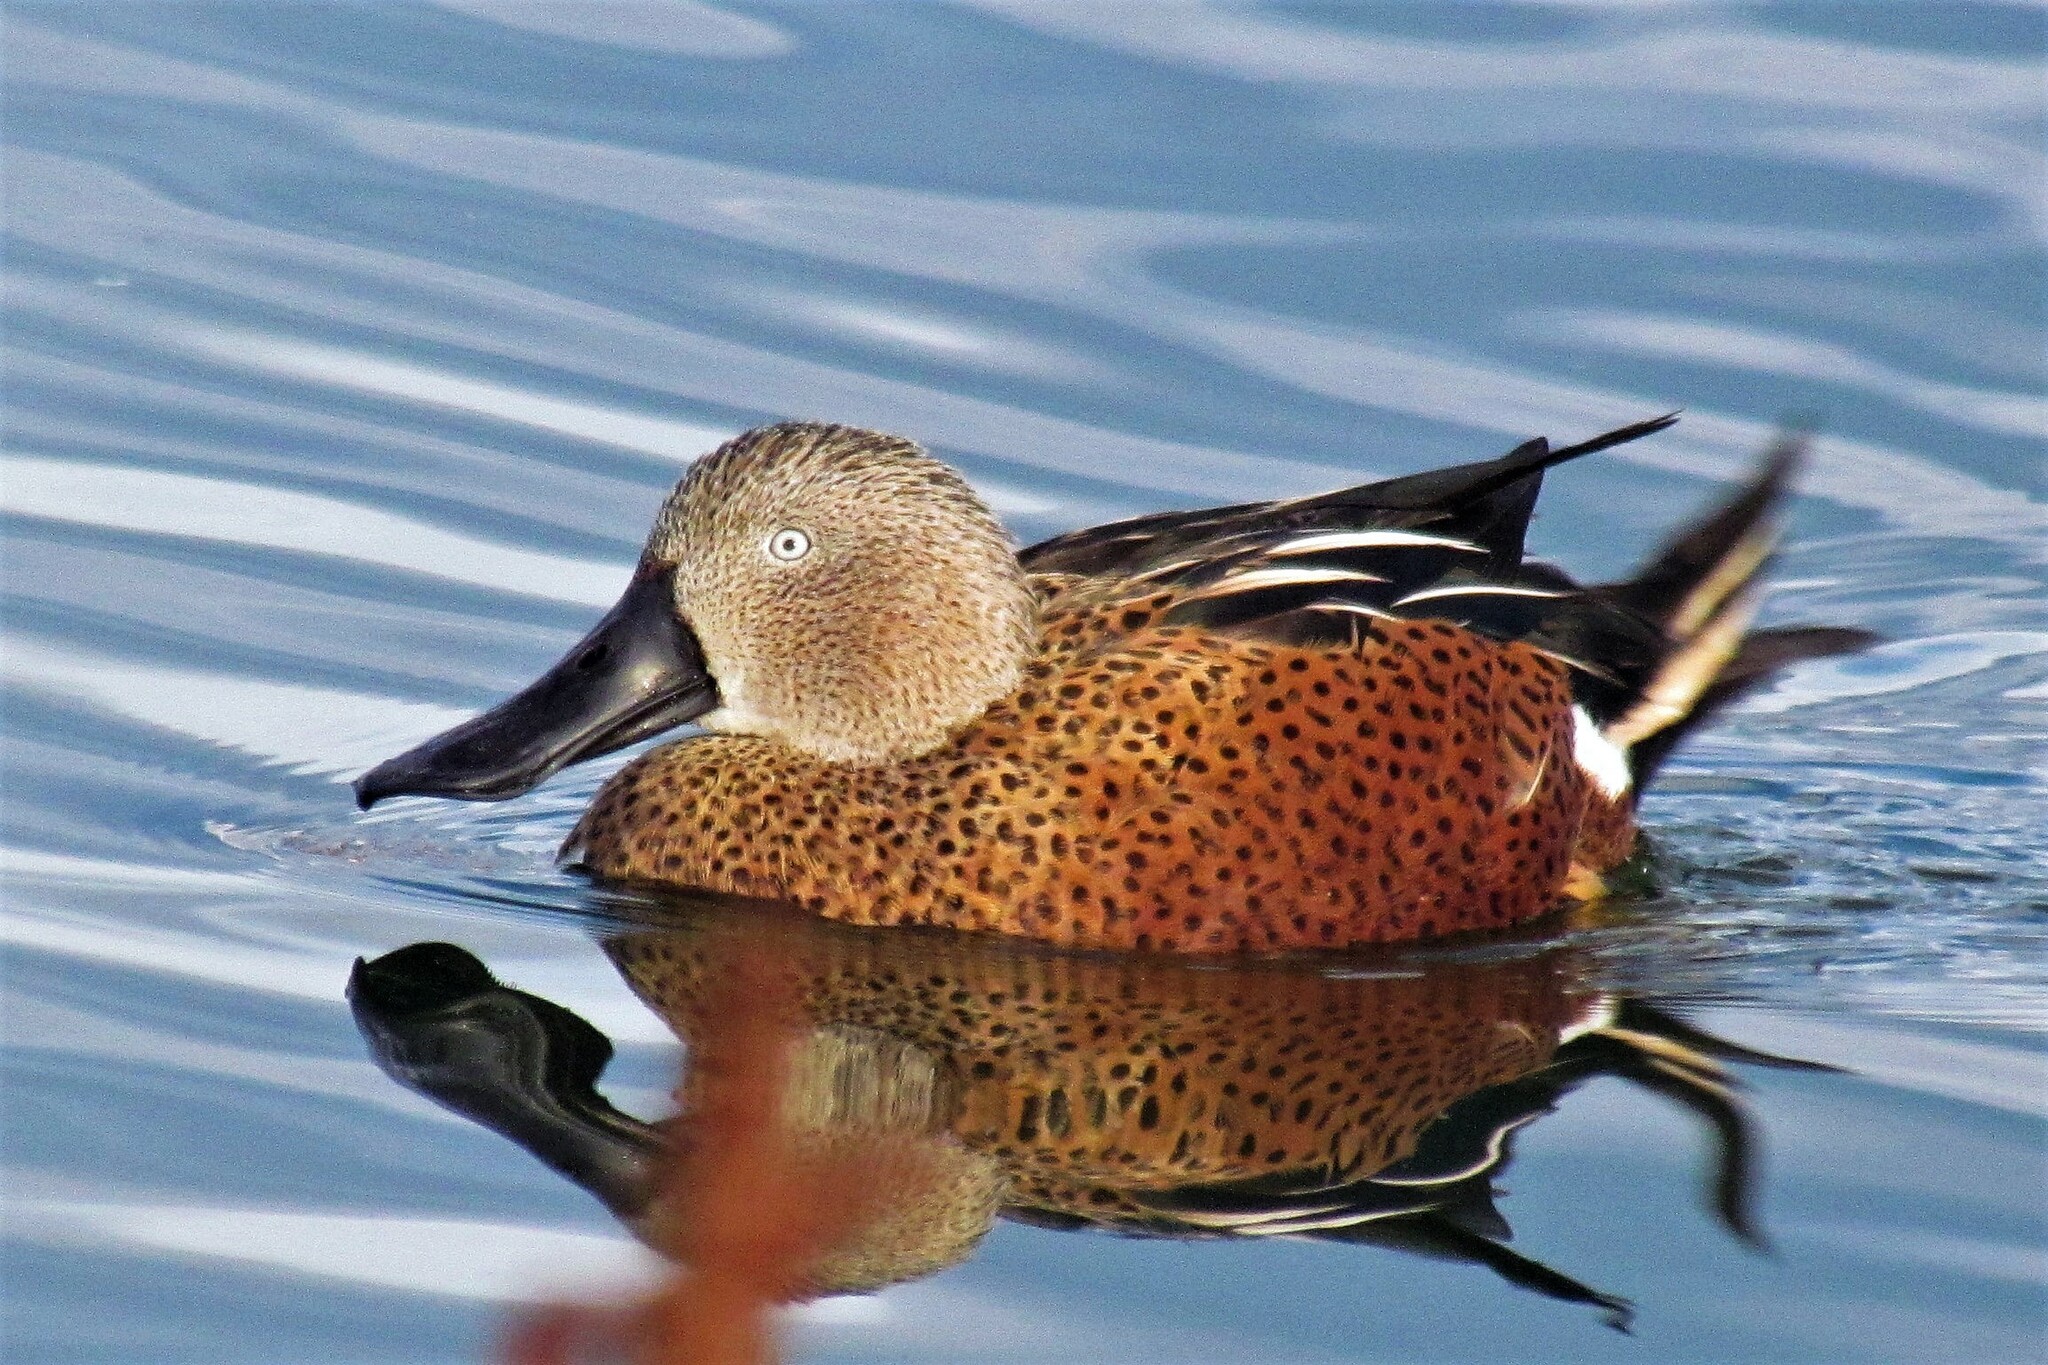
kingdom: Animalia
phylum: Chordata
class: Aves
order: Anseriformes
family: Anatidae
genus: Spatula
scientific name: Spatula platalea
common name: Red shoveler
